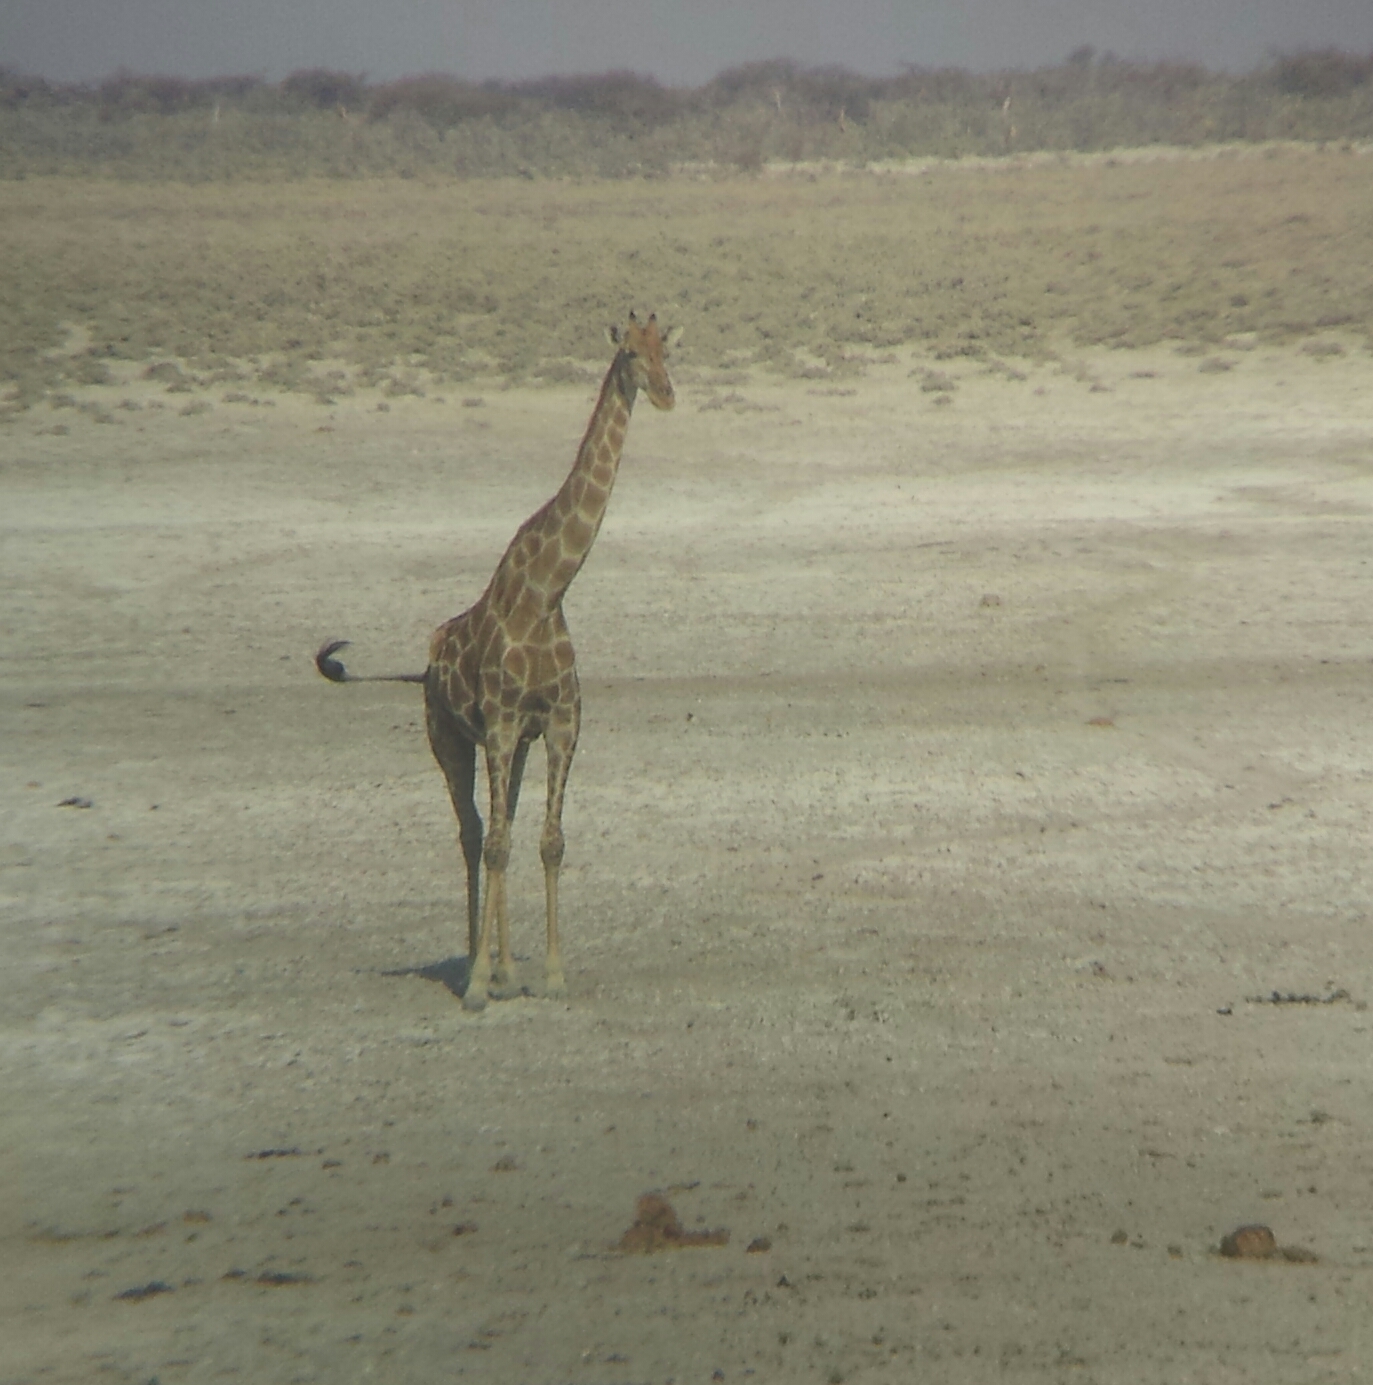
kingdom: Animalia
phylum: Chordata
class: Mammalia
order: Artiodactyla
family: Giraffidae
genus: Giraffa
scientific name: Giraffa giraffa
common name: Southern giraffe
